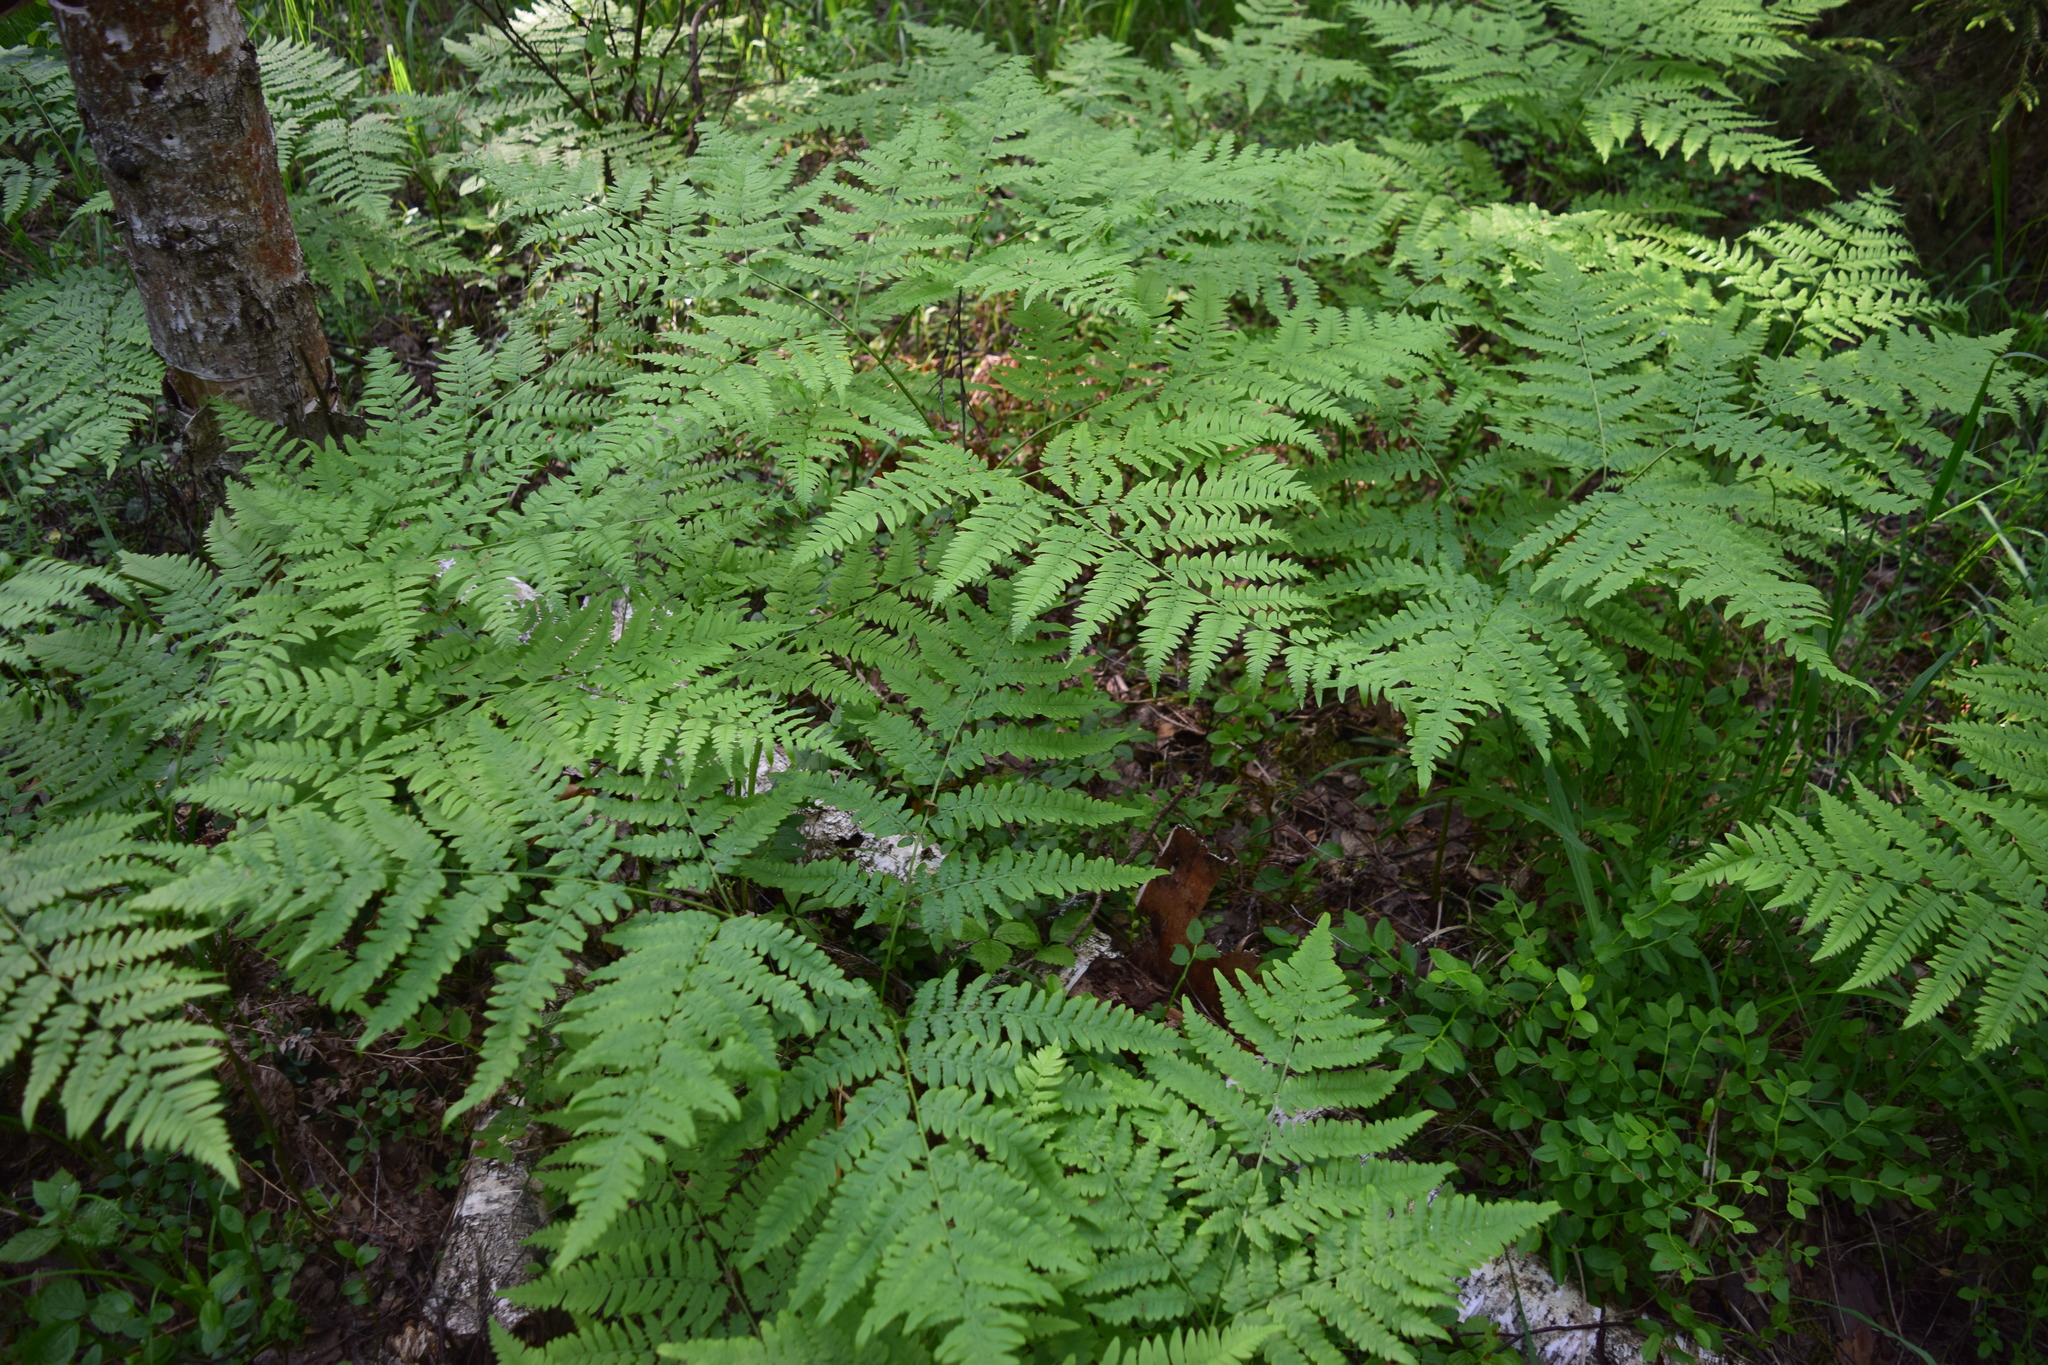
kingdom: Plantae
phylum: Tracheophyta
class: Polypodiopsida
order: Polypodiales
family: Dennstaedtiaceae
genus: Pteridium
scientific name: Pteridium aquilinum
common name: Bracken
